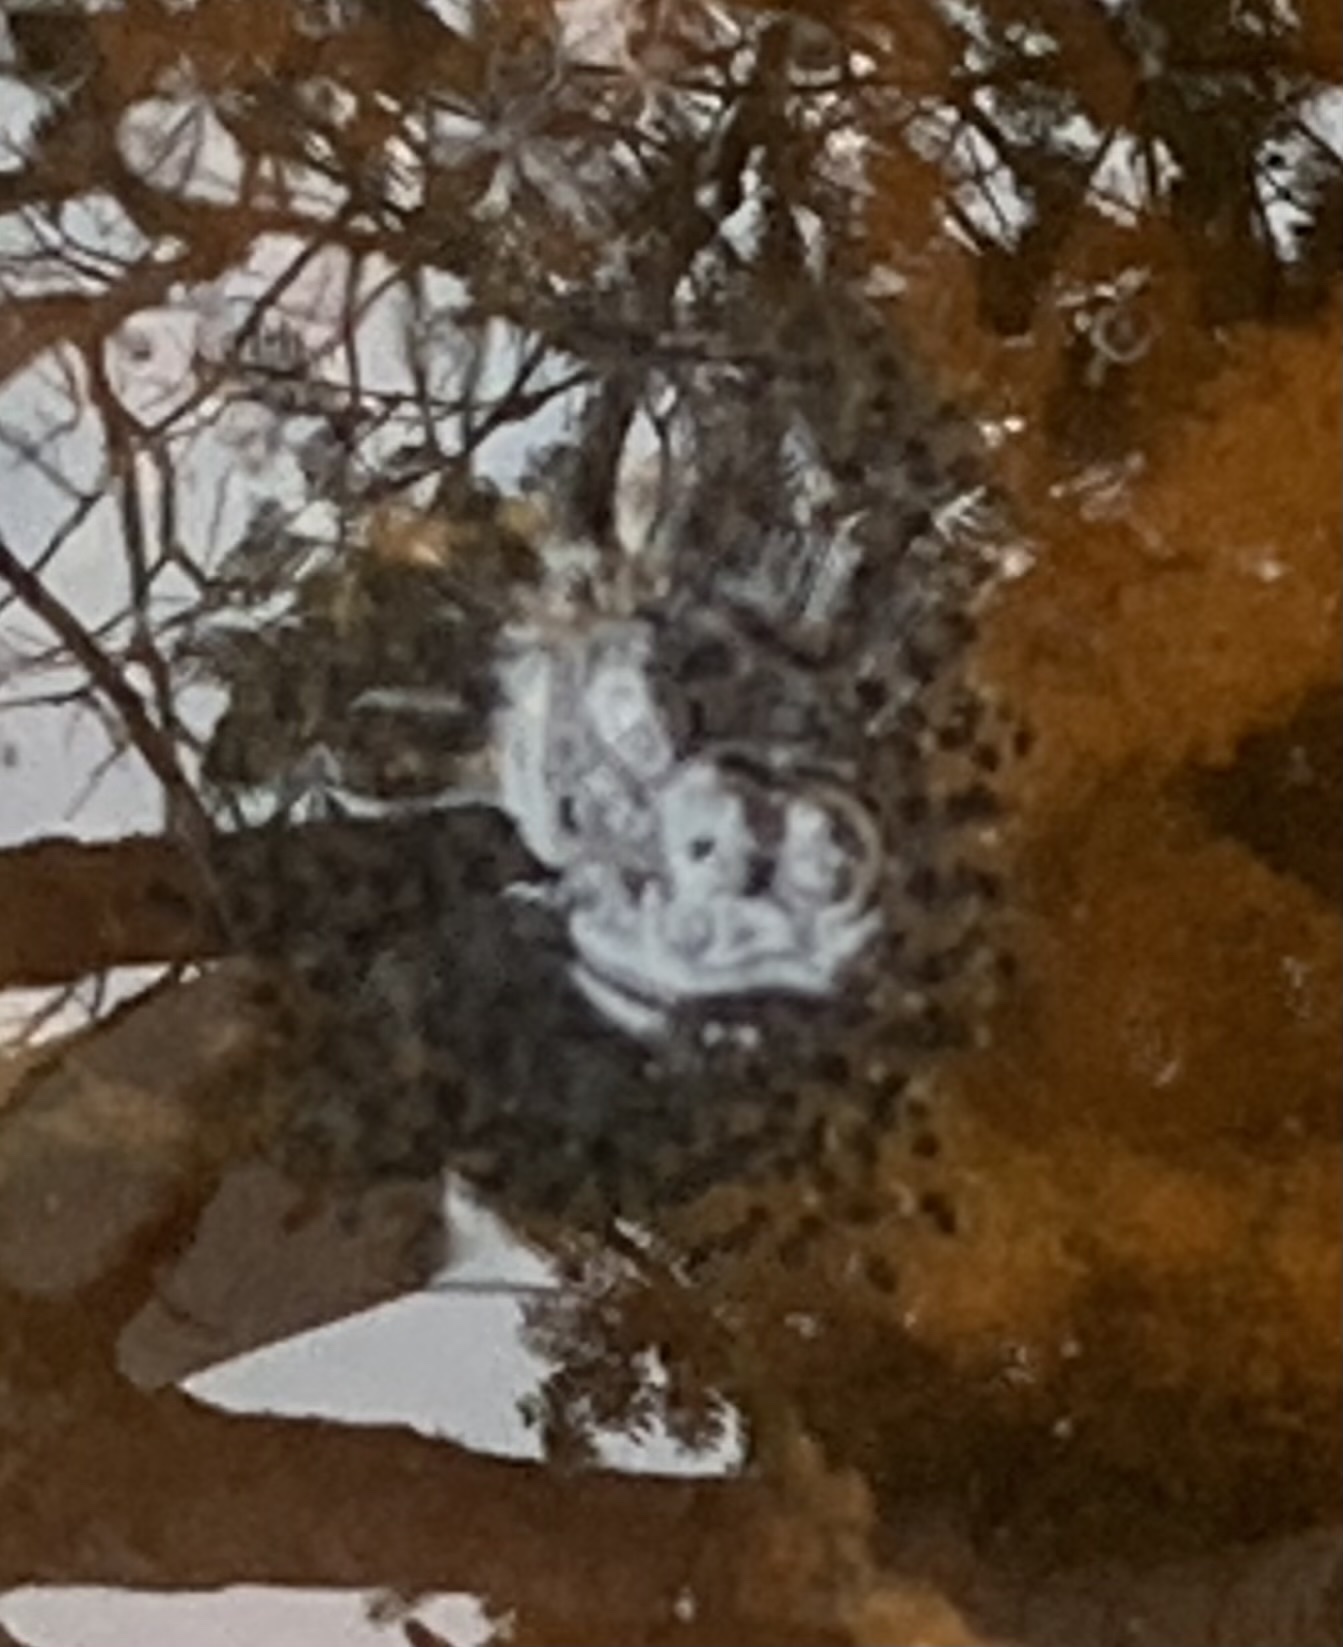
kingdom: Animalia
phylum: Chordata
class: Amphibia
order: Anura
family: Ranidae
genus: Lithobates
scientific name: Lithobates sylvaticus
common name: Wood frog
